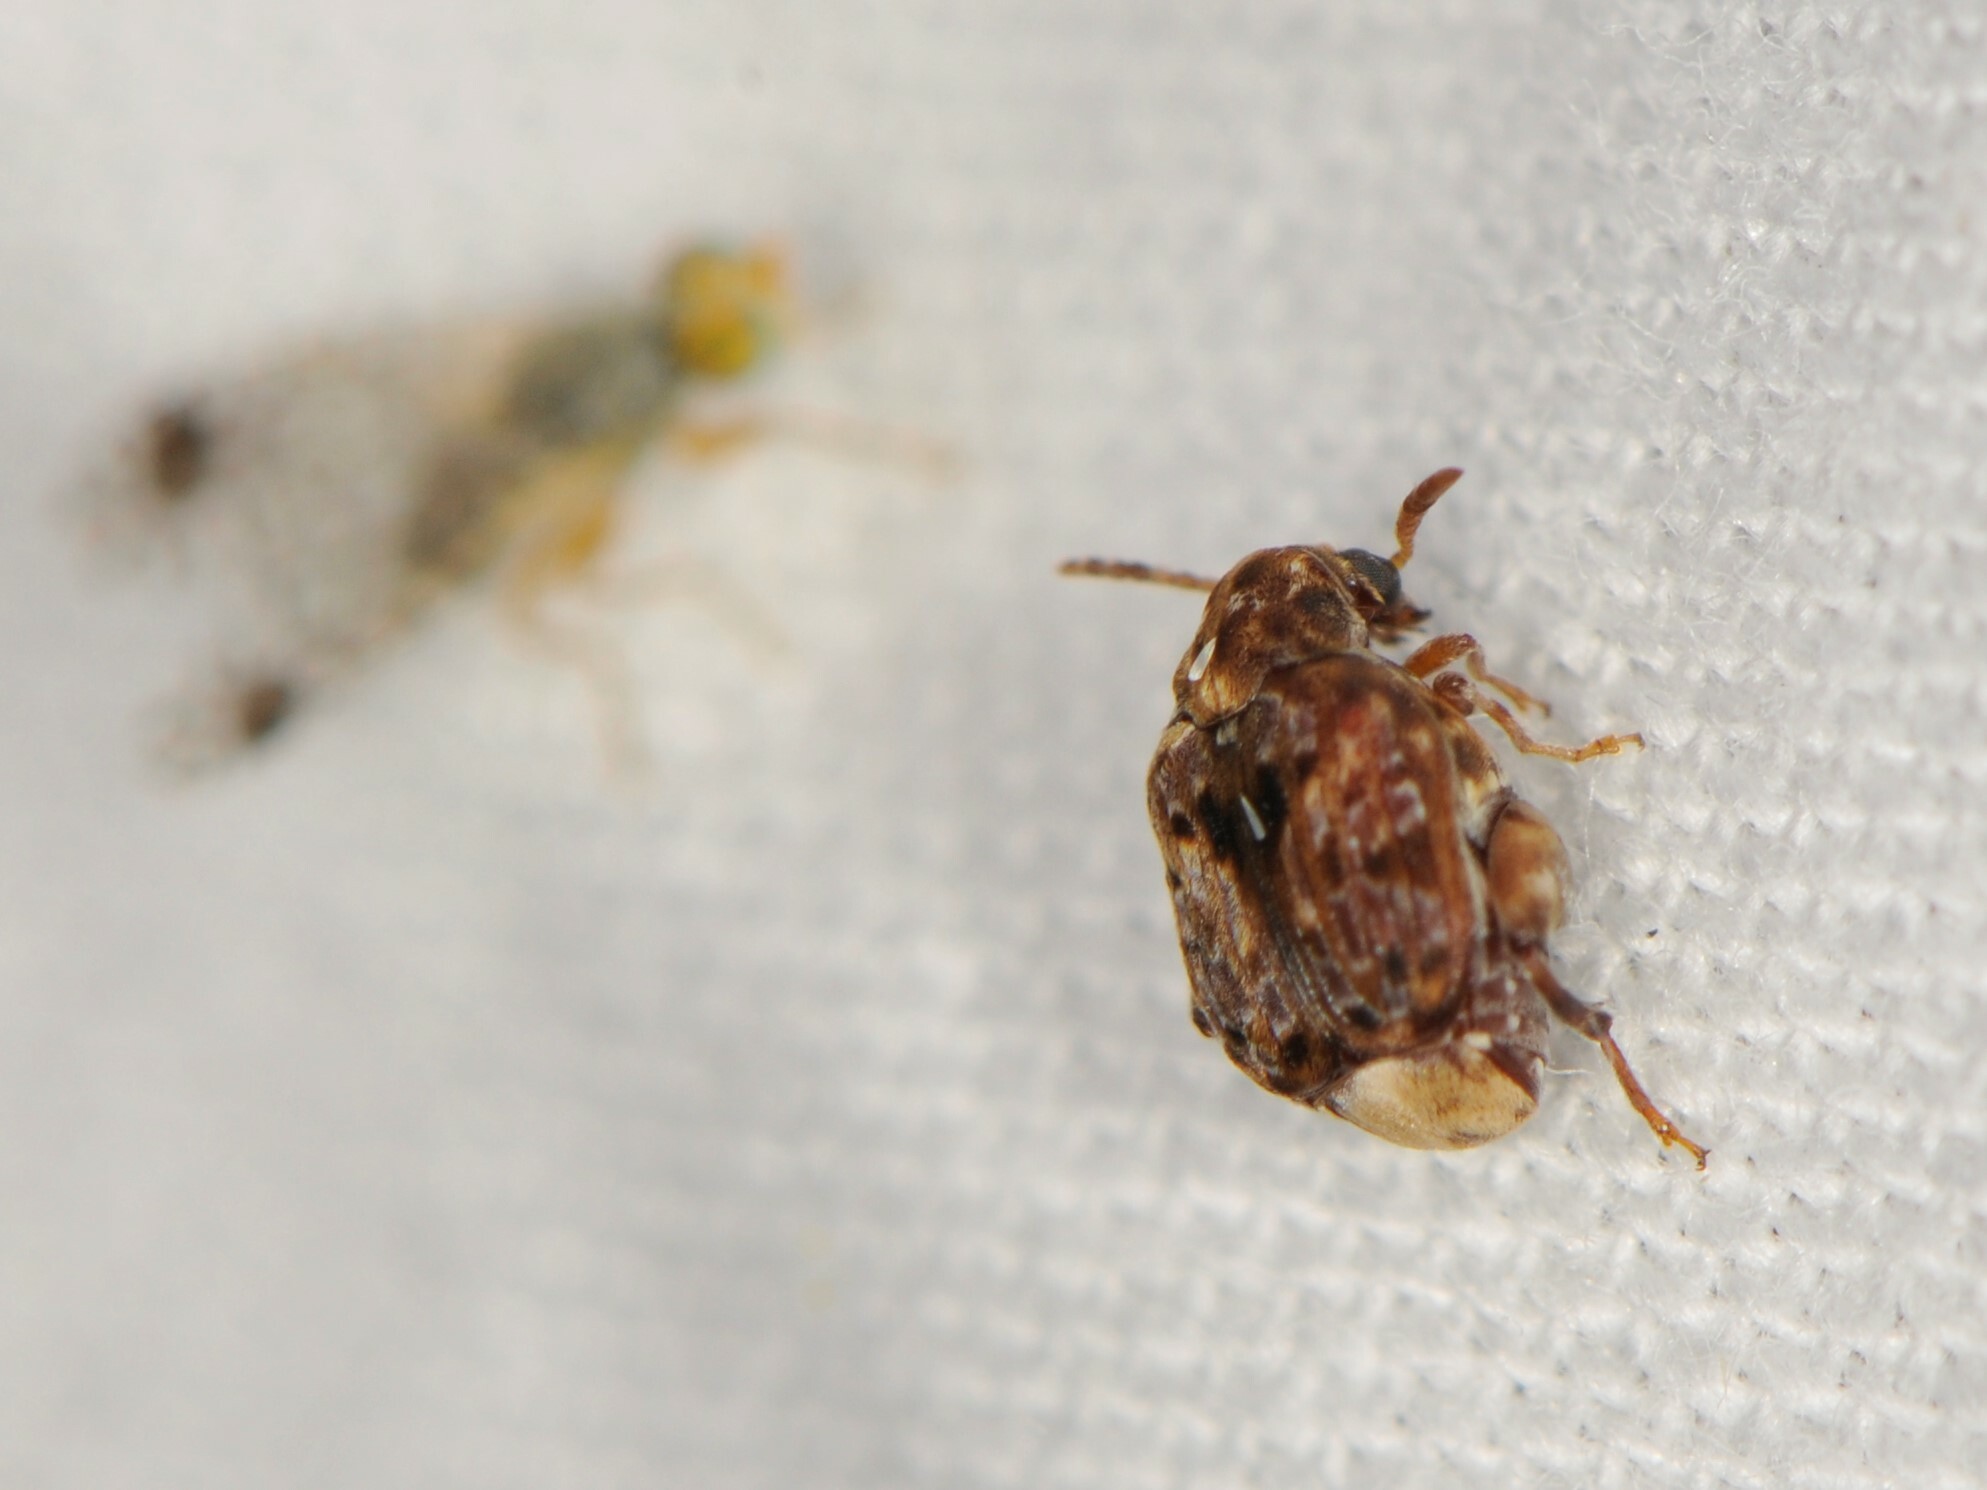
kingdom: Animalia
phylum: Arthropoda
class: Insecta
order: Coleoptera
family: Chrysomelidae
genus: Gibbobruchus
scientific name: Gibbobruchus mimus
